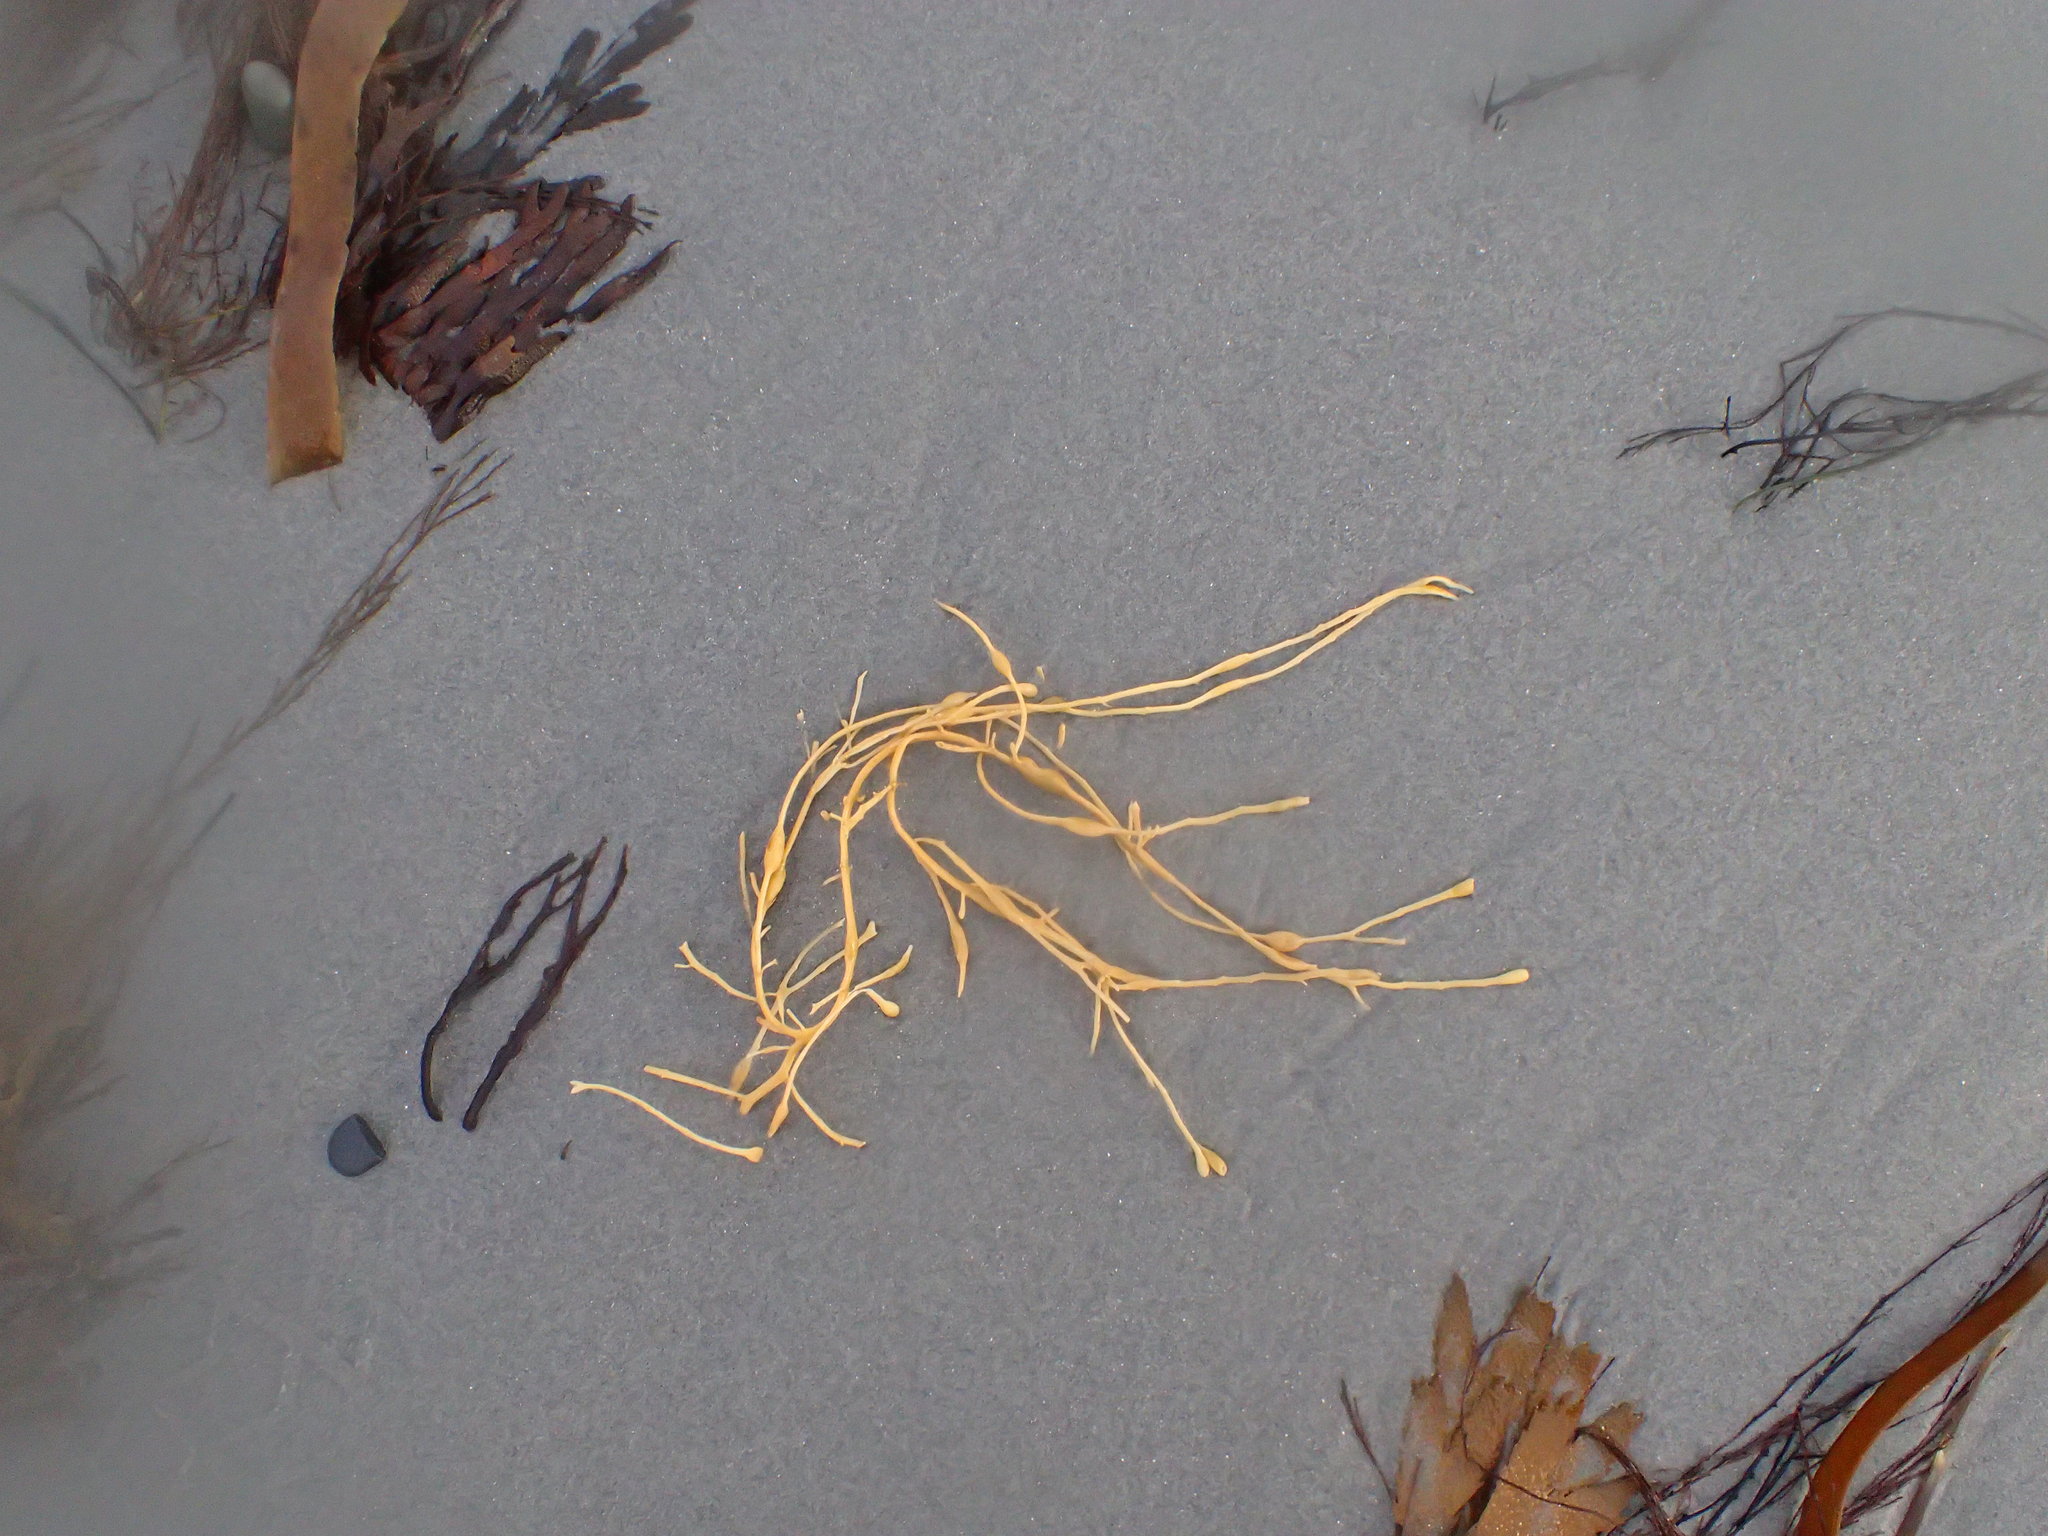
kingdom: Chromista
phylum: Ochrophyta
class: Phaeophyceae
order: Fucales
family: Fucaceae
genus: Ascophyllum
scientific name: Ascophyllum nodosum
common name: Knotted wrack
